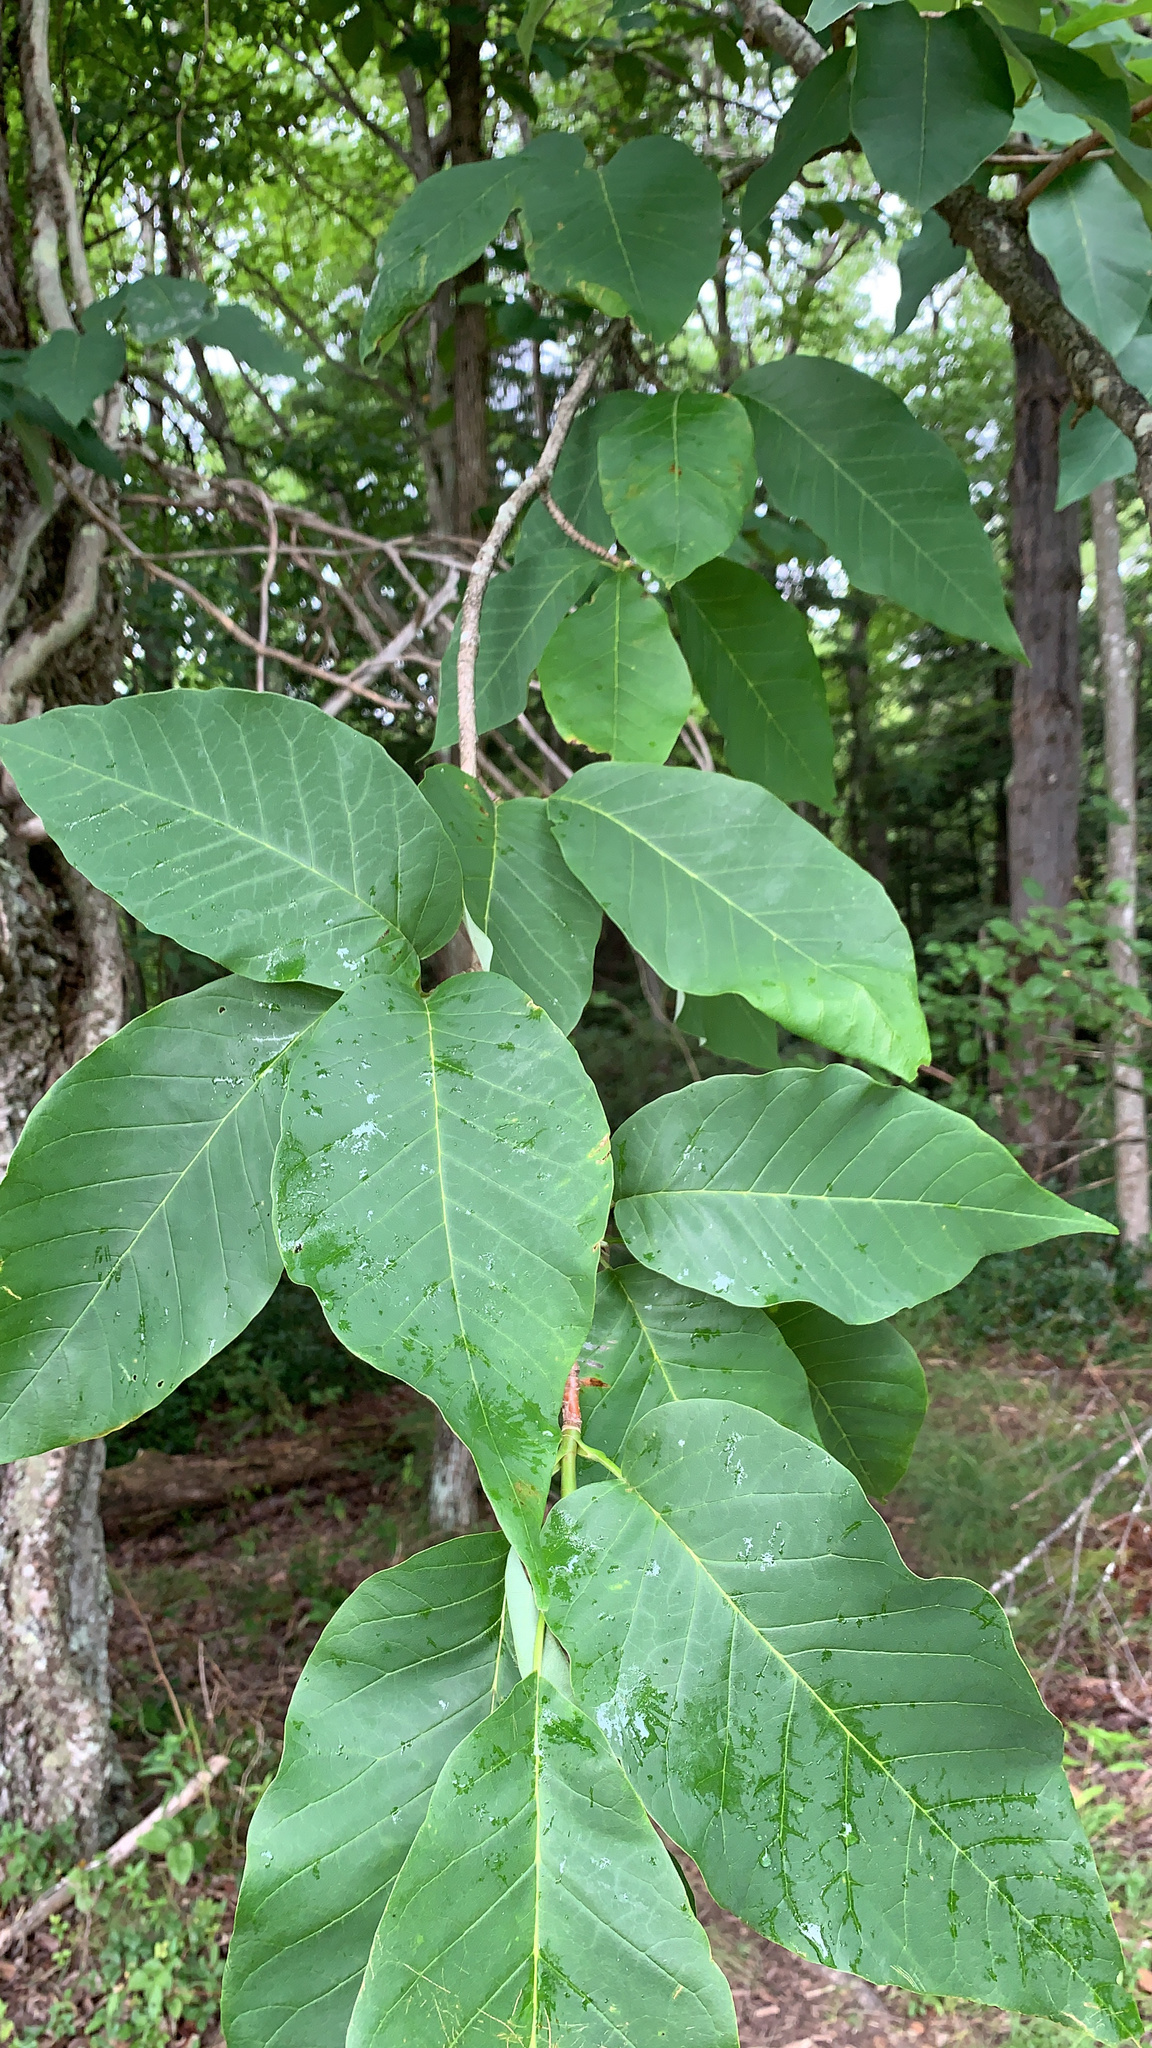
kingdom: Plantae
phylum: Tracheophyta
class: Magnoliopsida
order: Magnoliales
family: Magnoliaceae
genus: Magnolia
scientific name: Magnolia acuminata
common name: Cucumber magnolia
